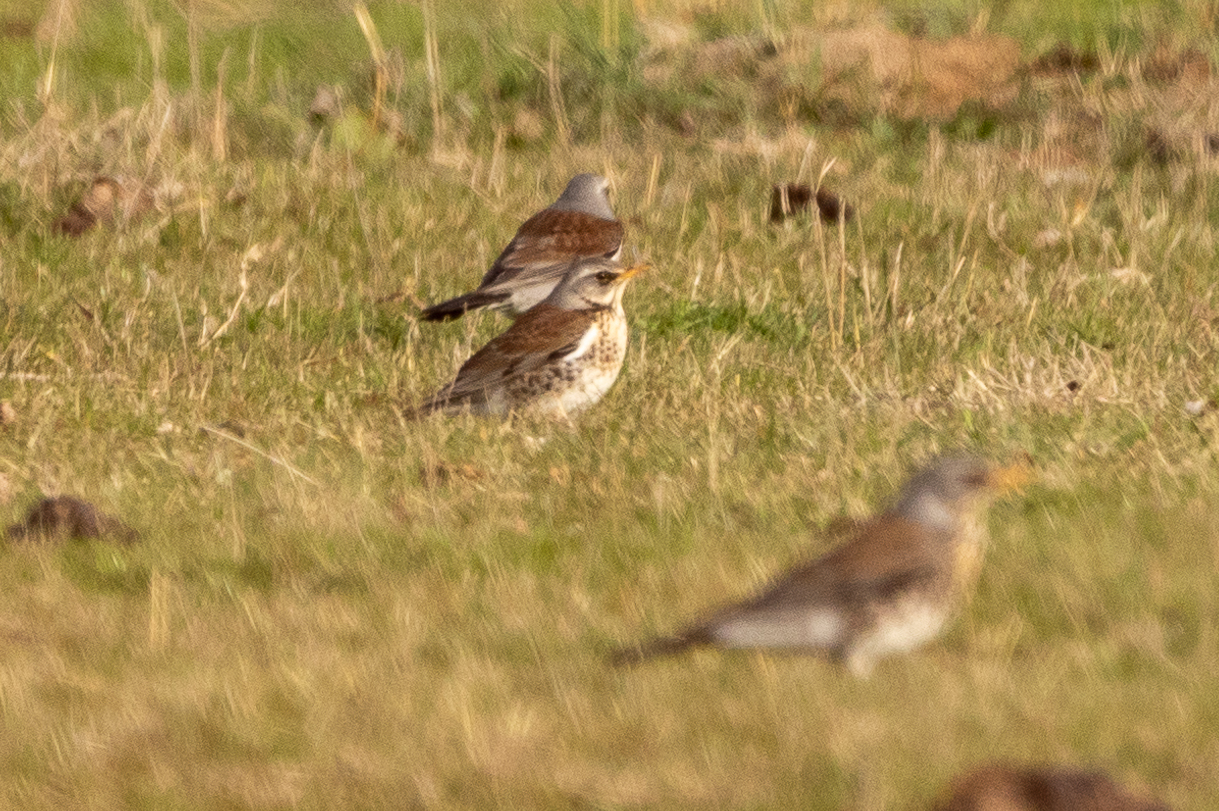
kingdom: Animalia
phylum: Chordata
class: Aves
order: Passeriformes
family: Turdidae
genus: Turdus
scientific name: Turdus pilaris
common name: Fieldfare
